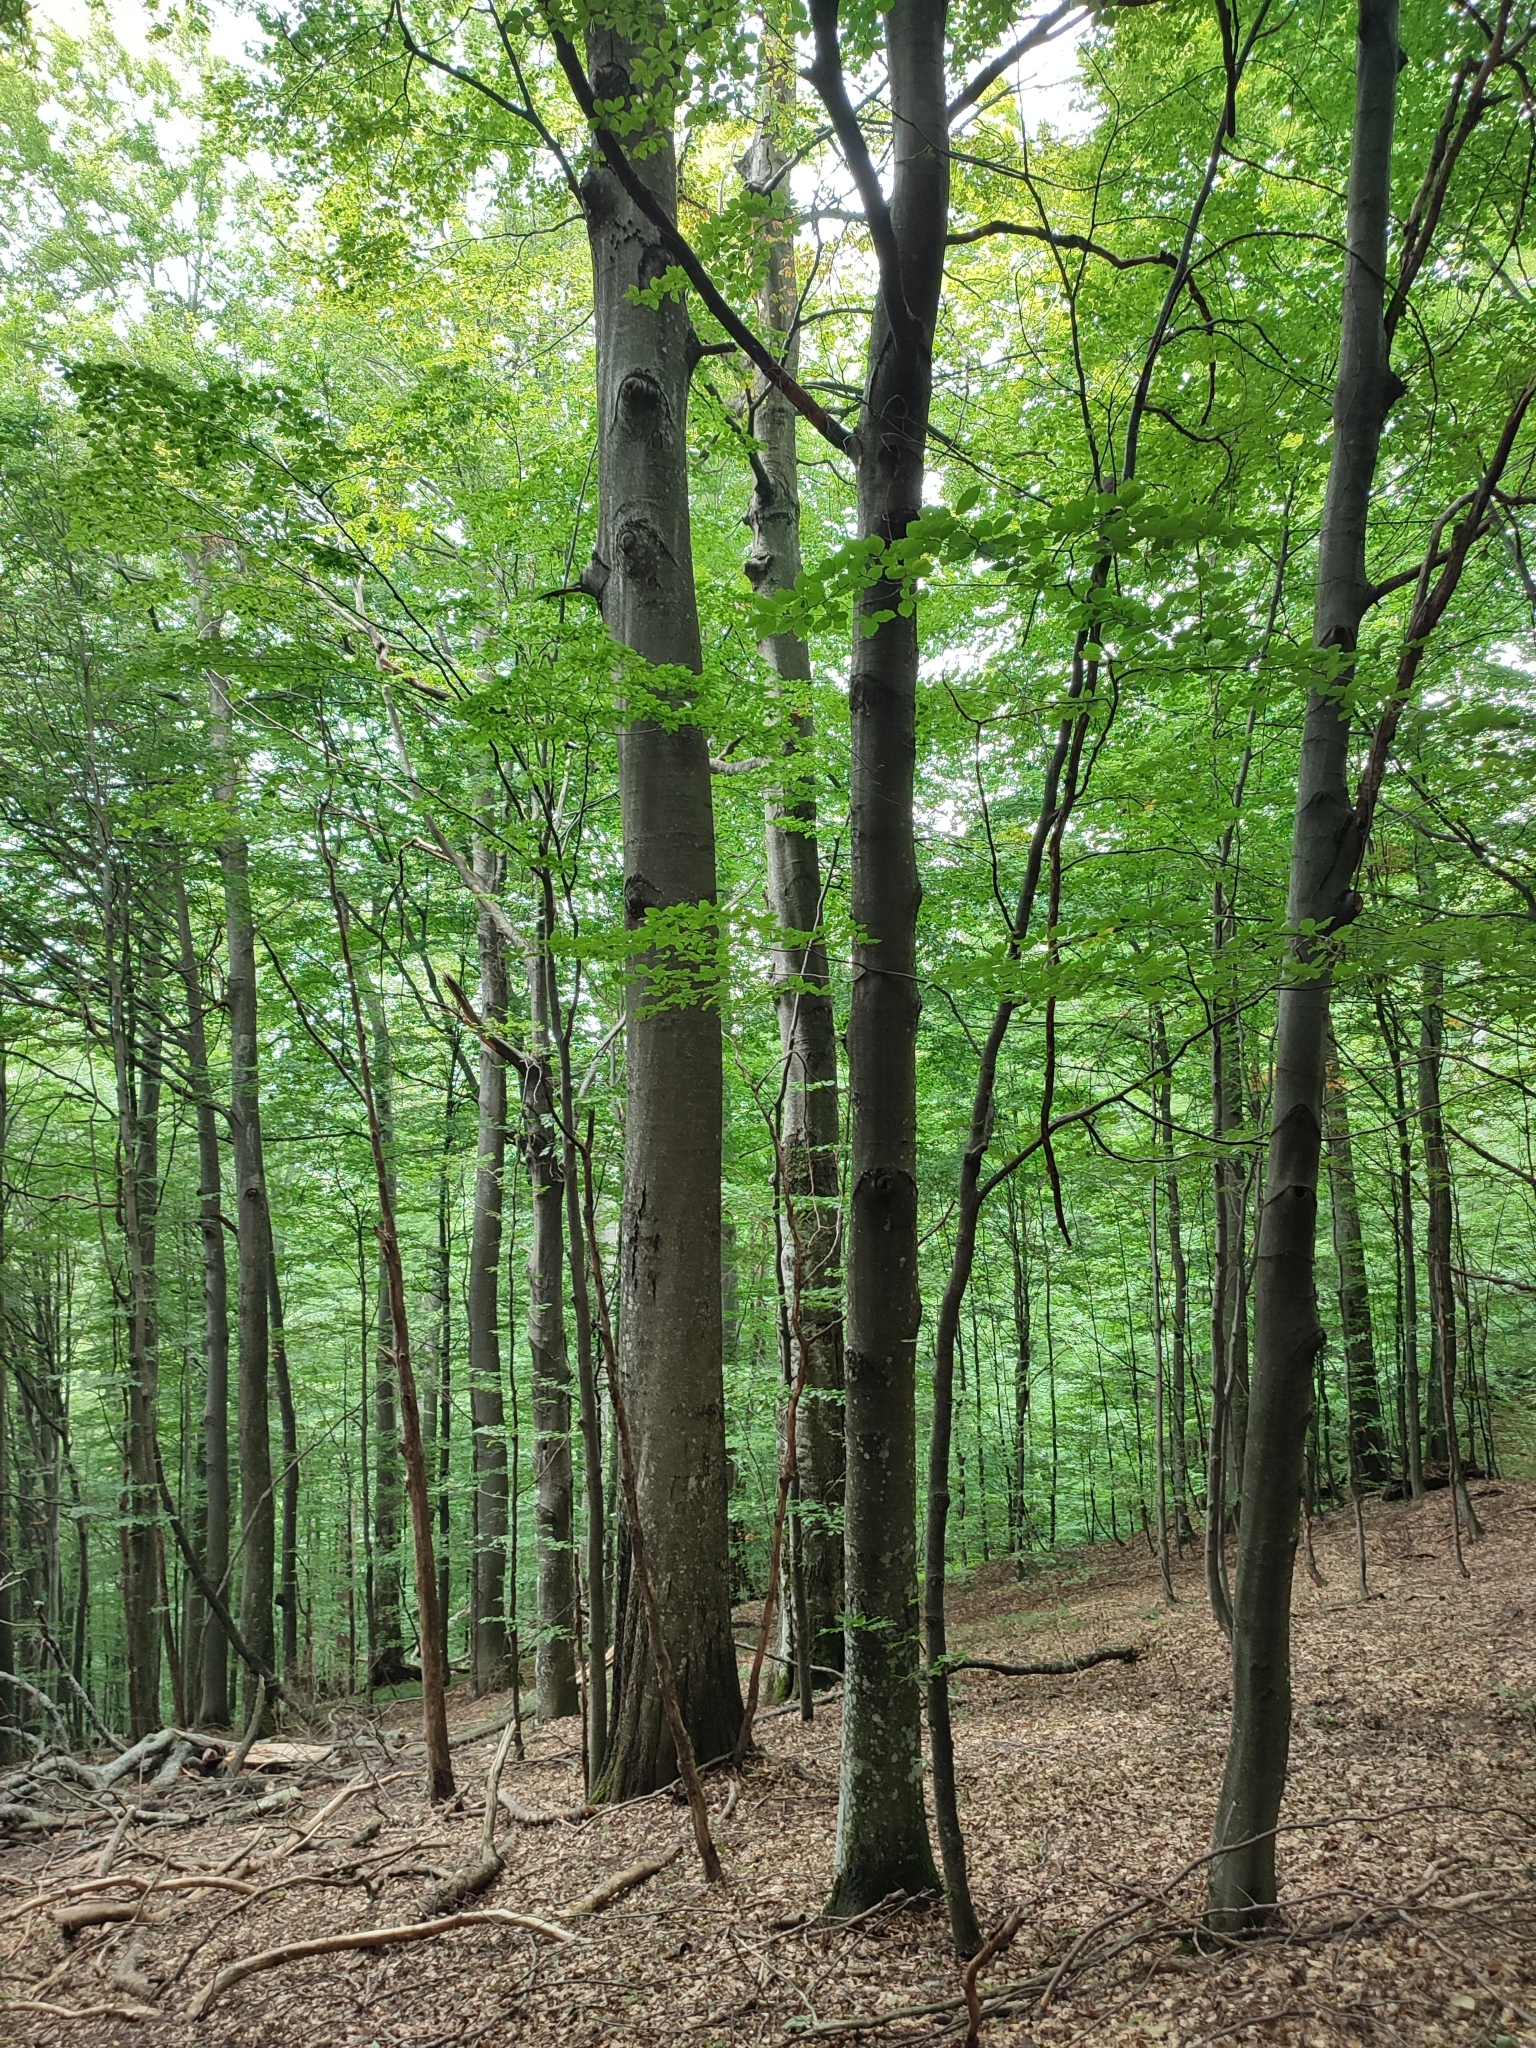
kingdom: Plantae
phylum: Tracheophyta
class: Magnoliopsida
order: Fagales
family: Fagaceae
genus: Fagus
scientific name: Fagus sylvatica
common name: Beech
